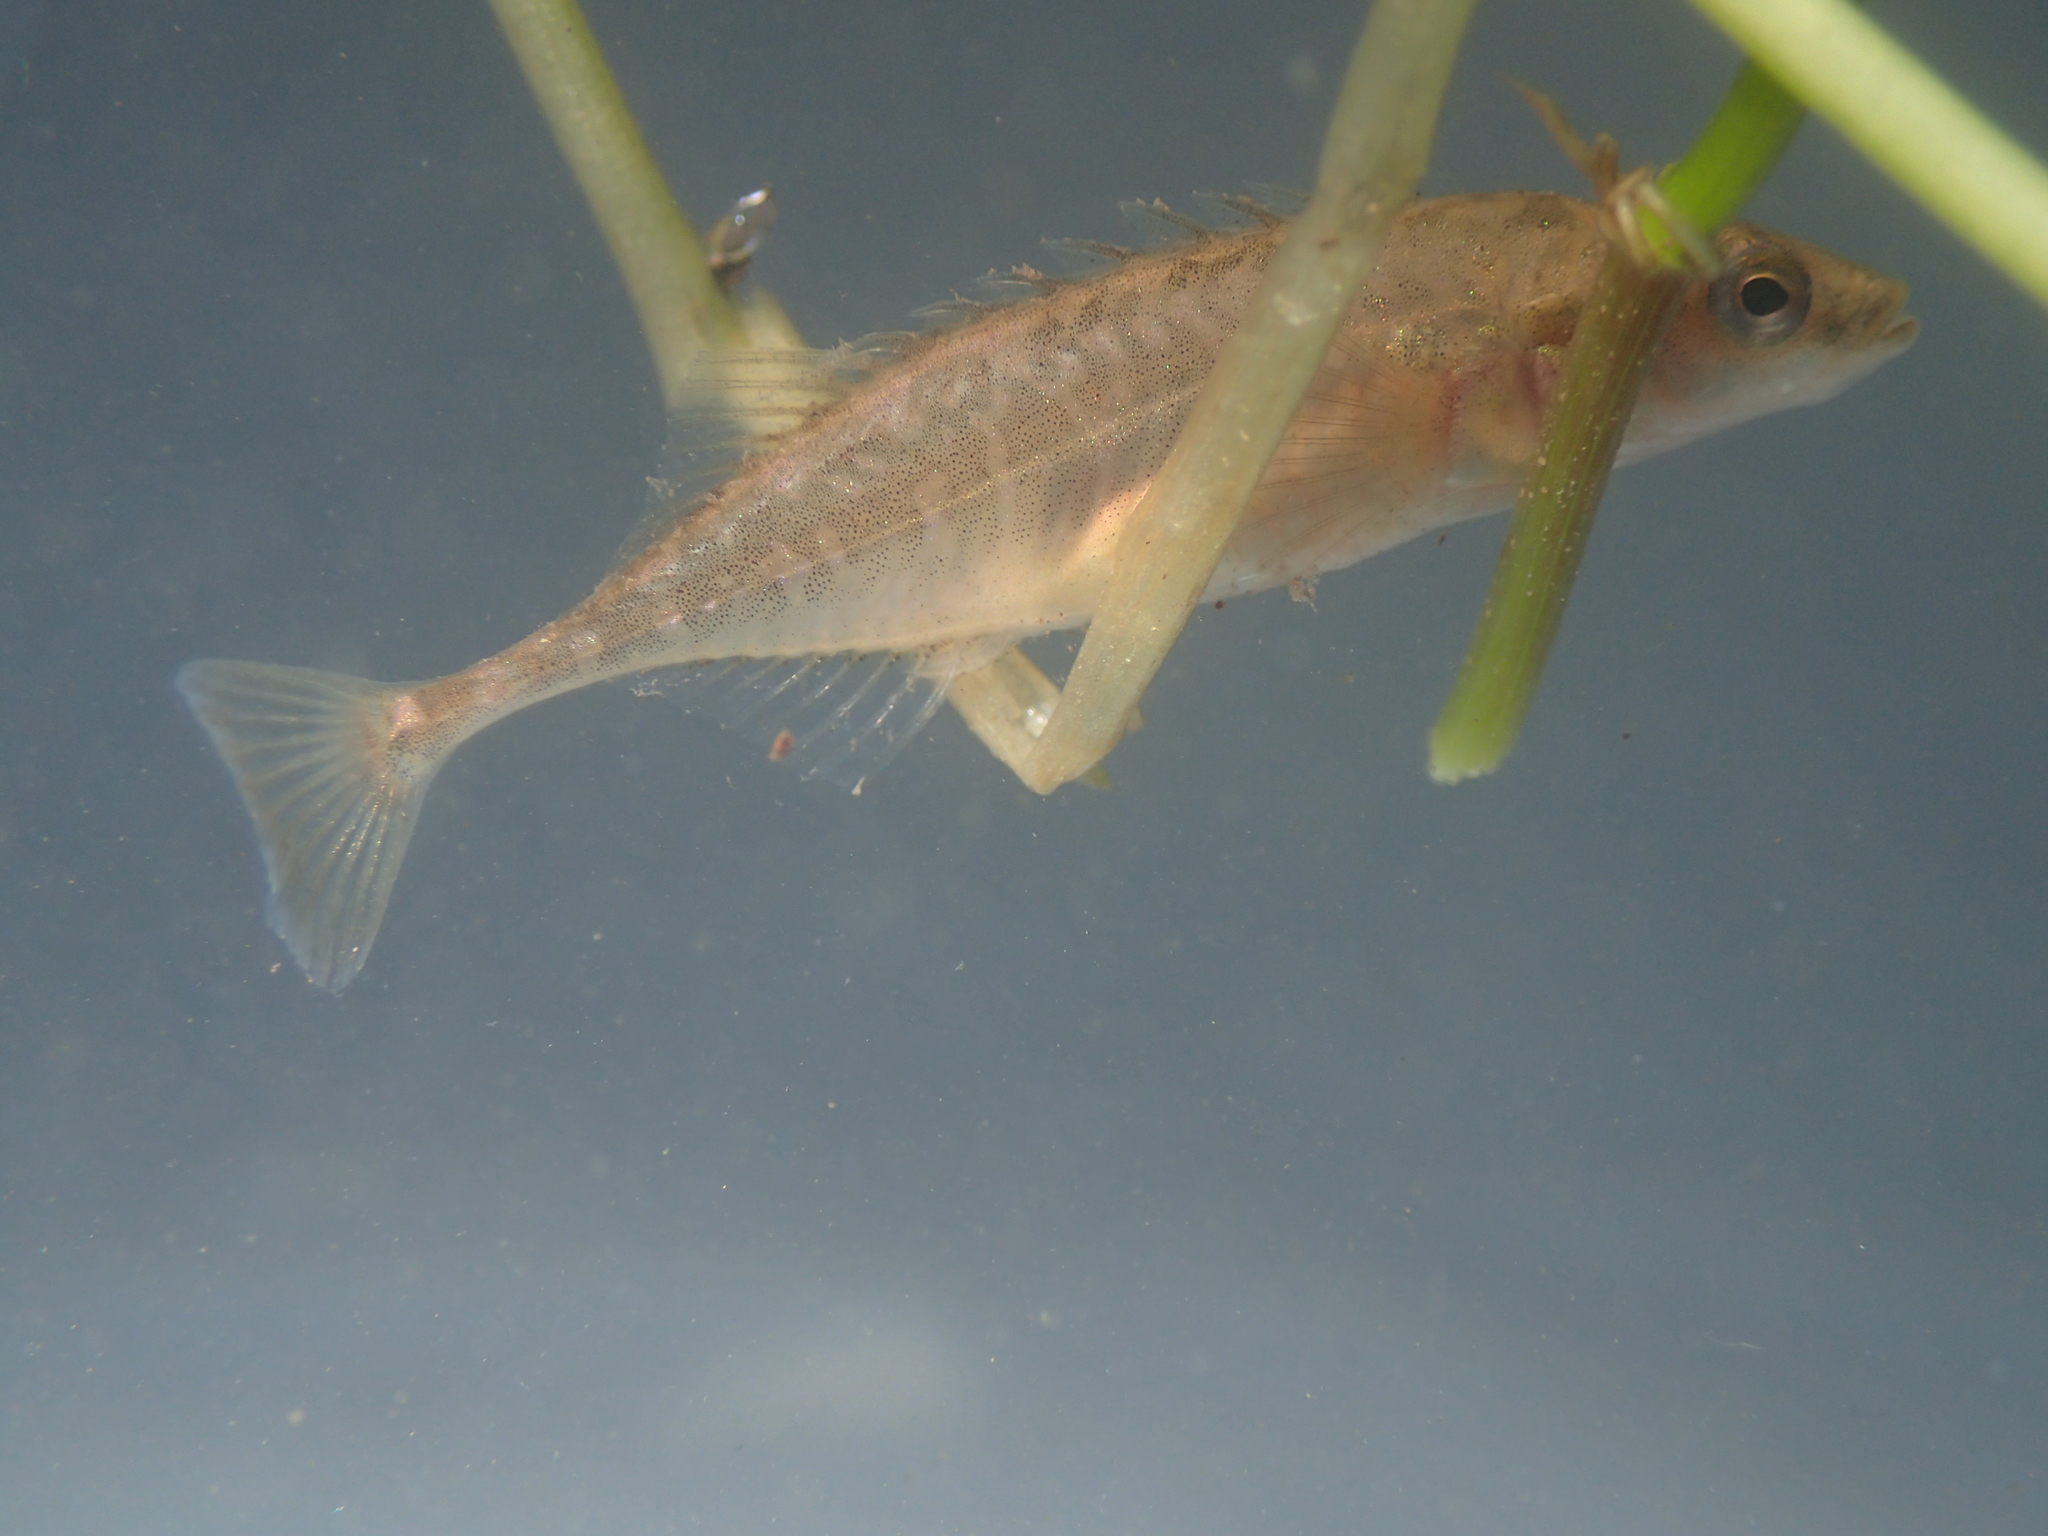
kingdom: Animalia
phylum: Chordata
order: Gasterosteiformes
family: Gasterosteidae
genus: Pungitius
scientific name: Pungitius laevis
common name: Smoothtail ninespine stickleback
